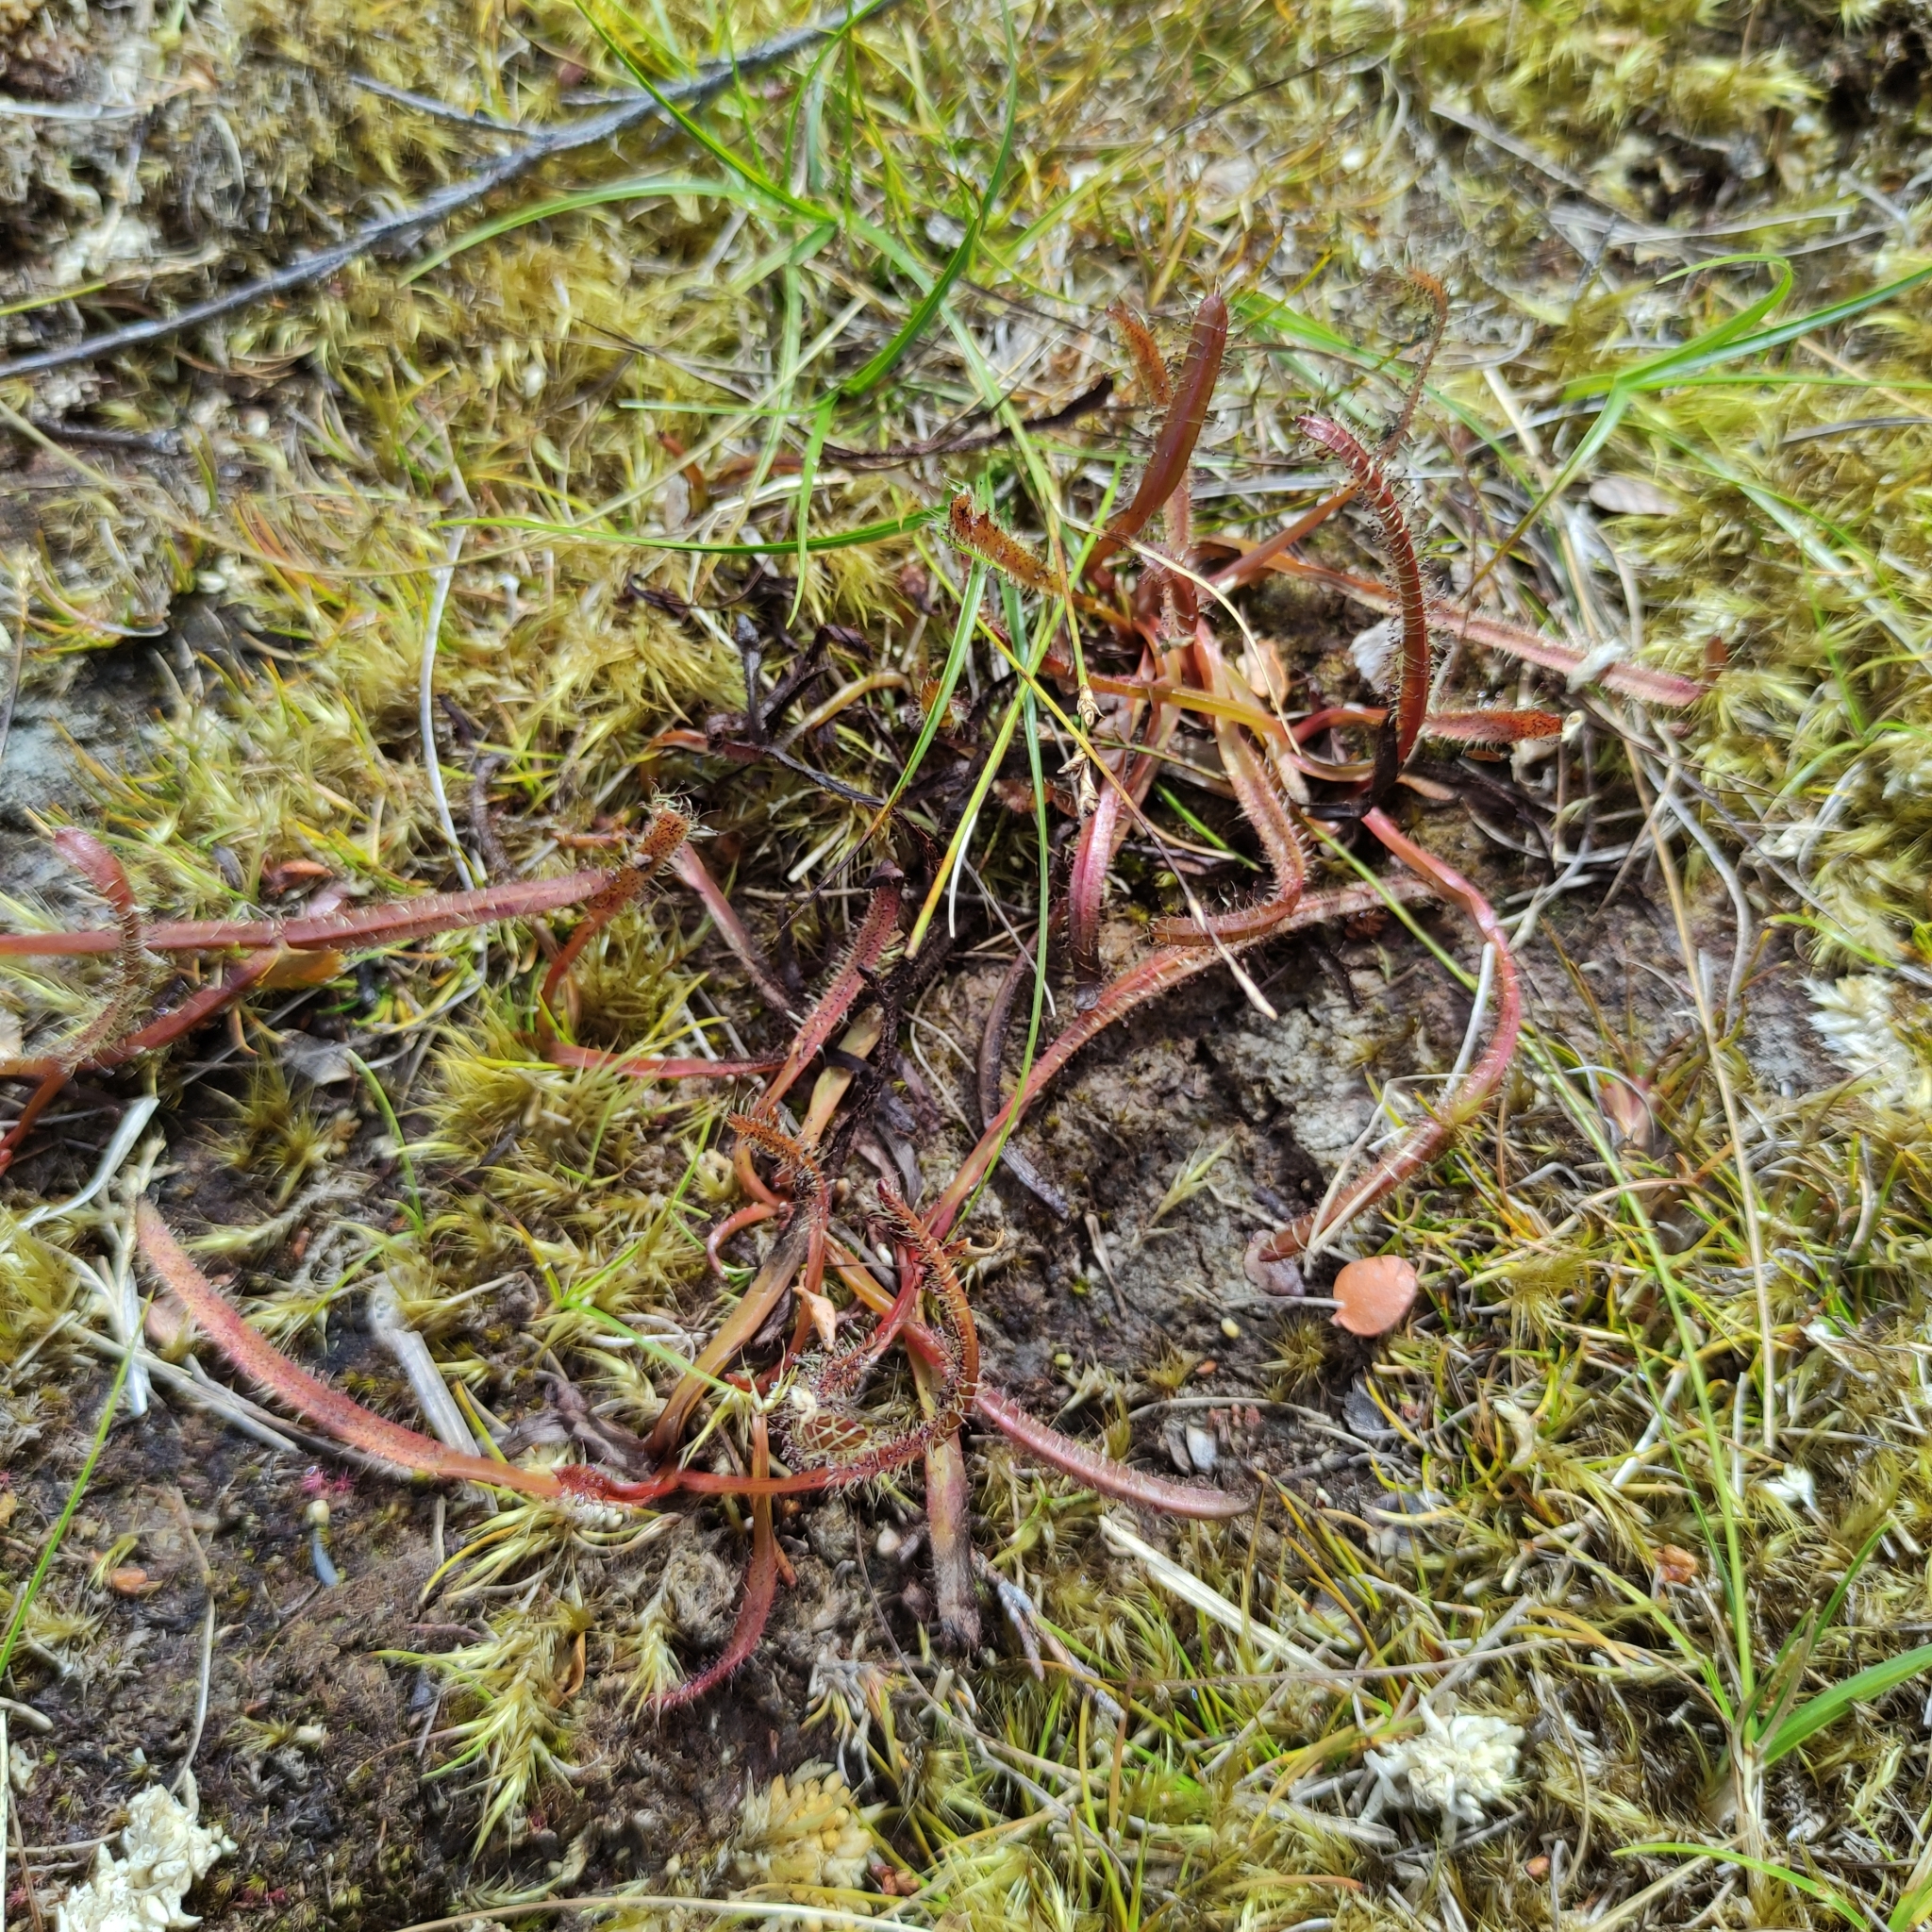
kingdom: Plantae
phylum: Tracheophyta
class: Magnoliopsida
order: Caryophyllales
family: Droseraceae
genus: Drosera
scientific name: Drosera arcturi
